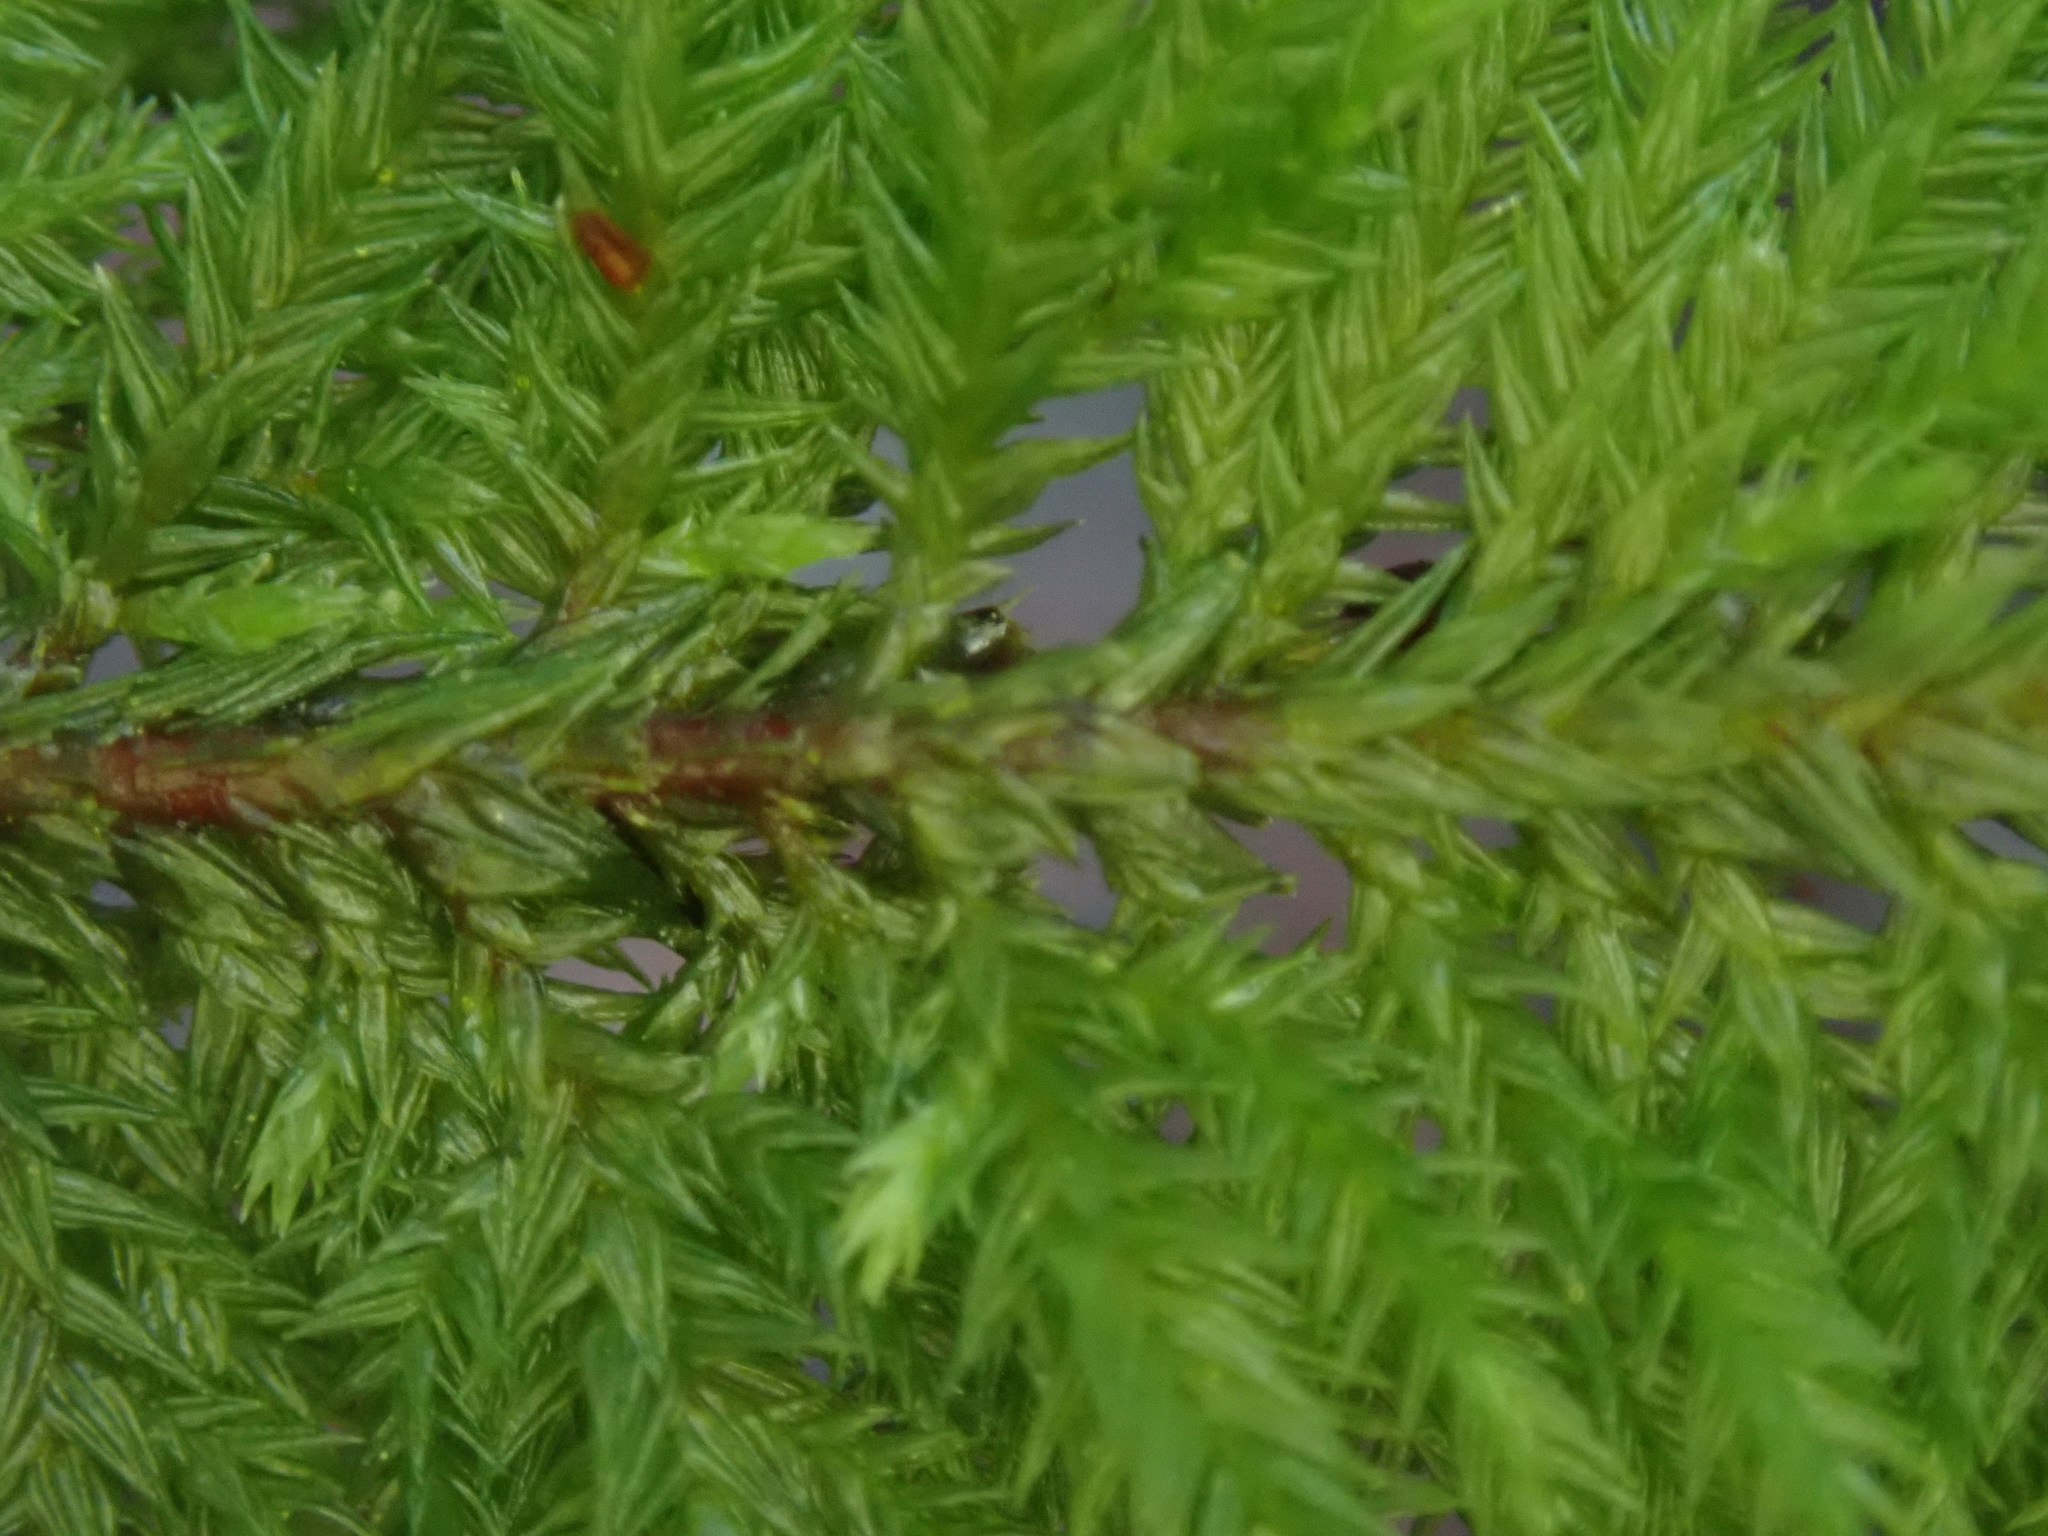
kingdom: Plantae
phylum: Bryophyta
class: Bryopsida
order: Hypnales
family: Cryphaeaceae
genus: Dendroalsia
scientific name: Dendroalsia abietina
